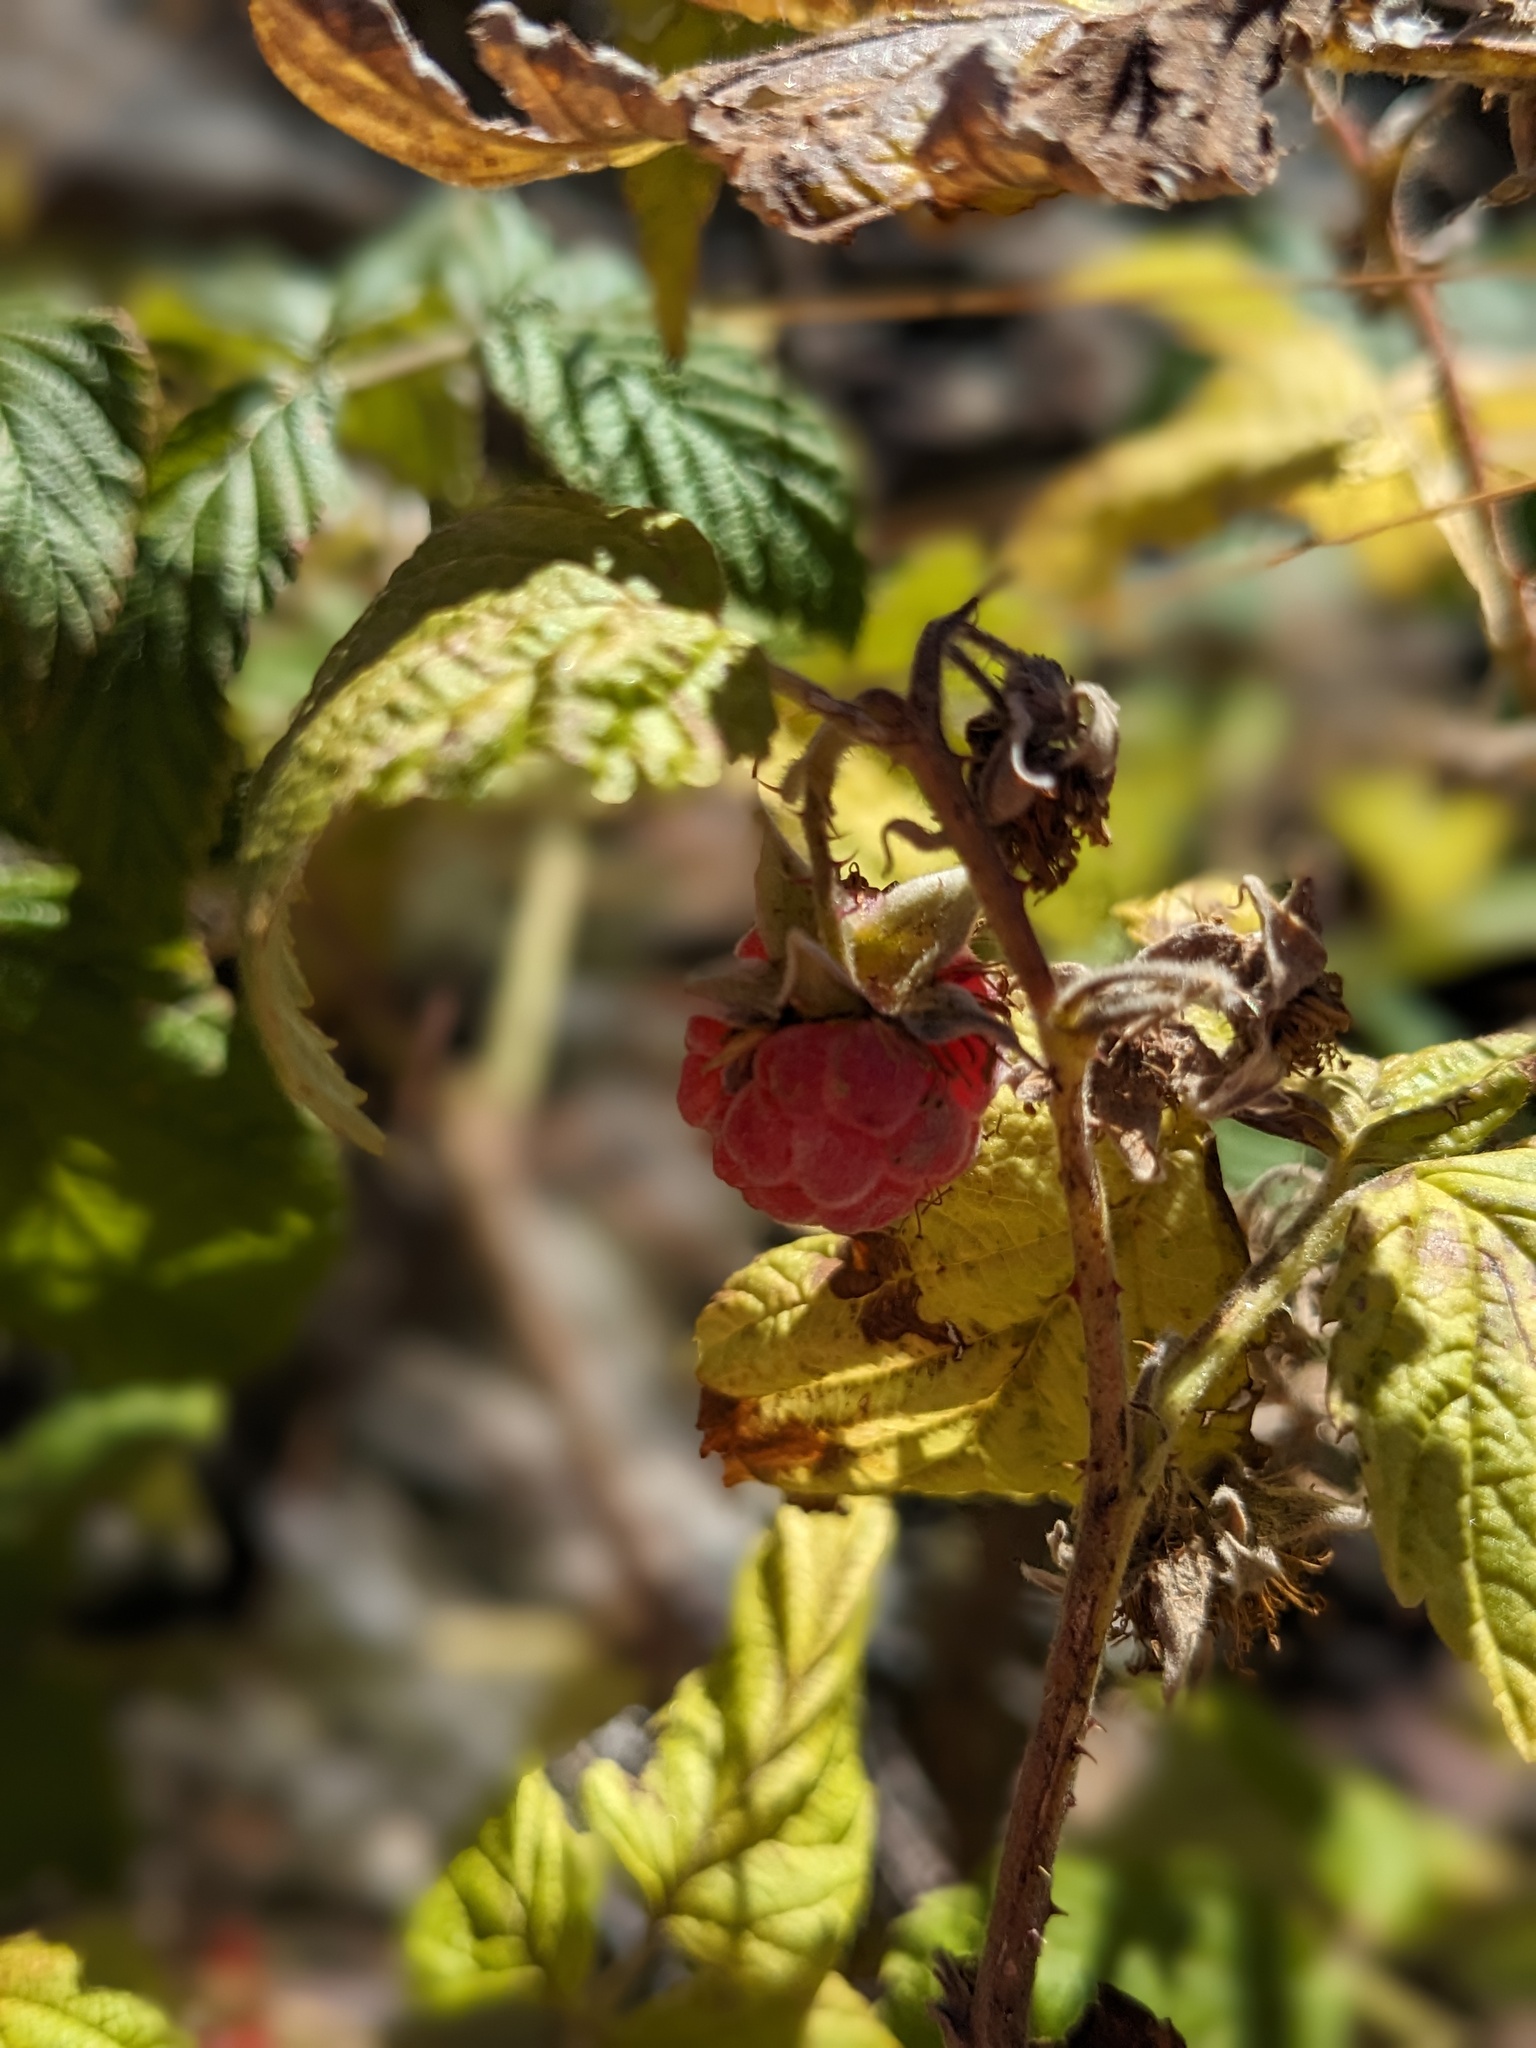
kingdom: Plantae
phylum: Tracheophyta
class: Magnoliopsida
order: Rosales
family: Rosaceae
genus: Rubus
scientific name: Rubus idaeus
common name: Raspberry
